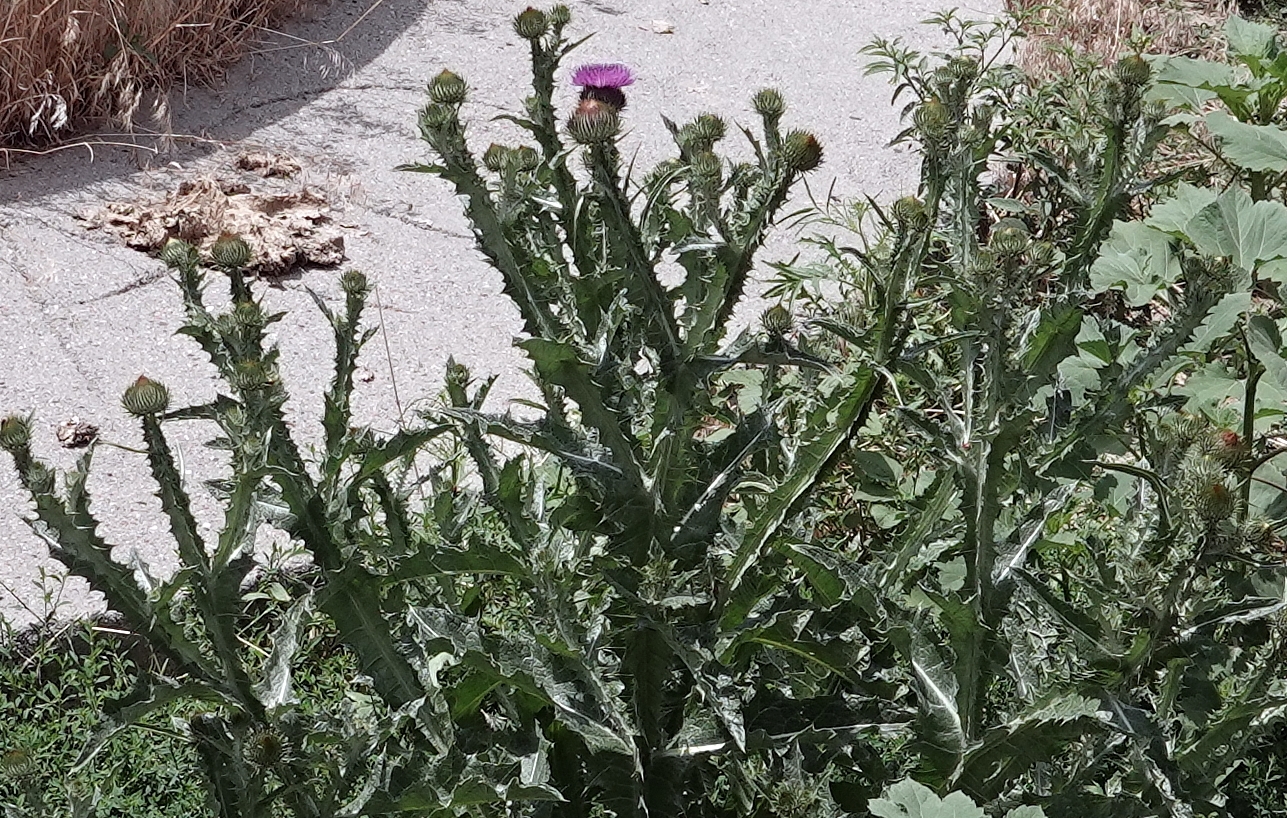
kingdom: Plantae
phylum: Tracheophyta
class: Magnoliopsida
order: Asterales
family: Asteraceae
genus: Onopordum
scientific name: Onopordum acanthium
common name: Scotch thistle
